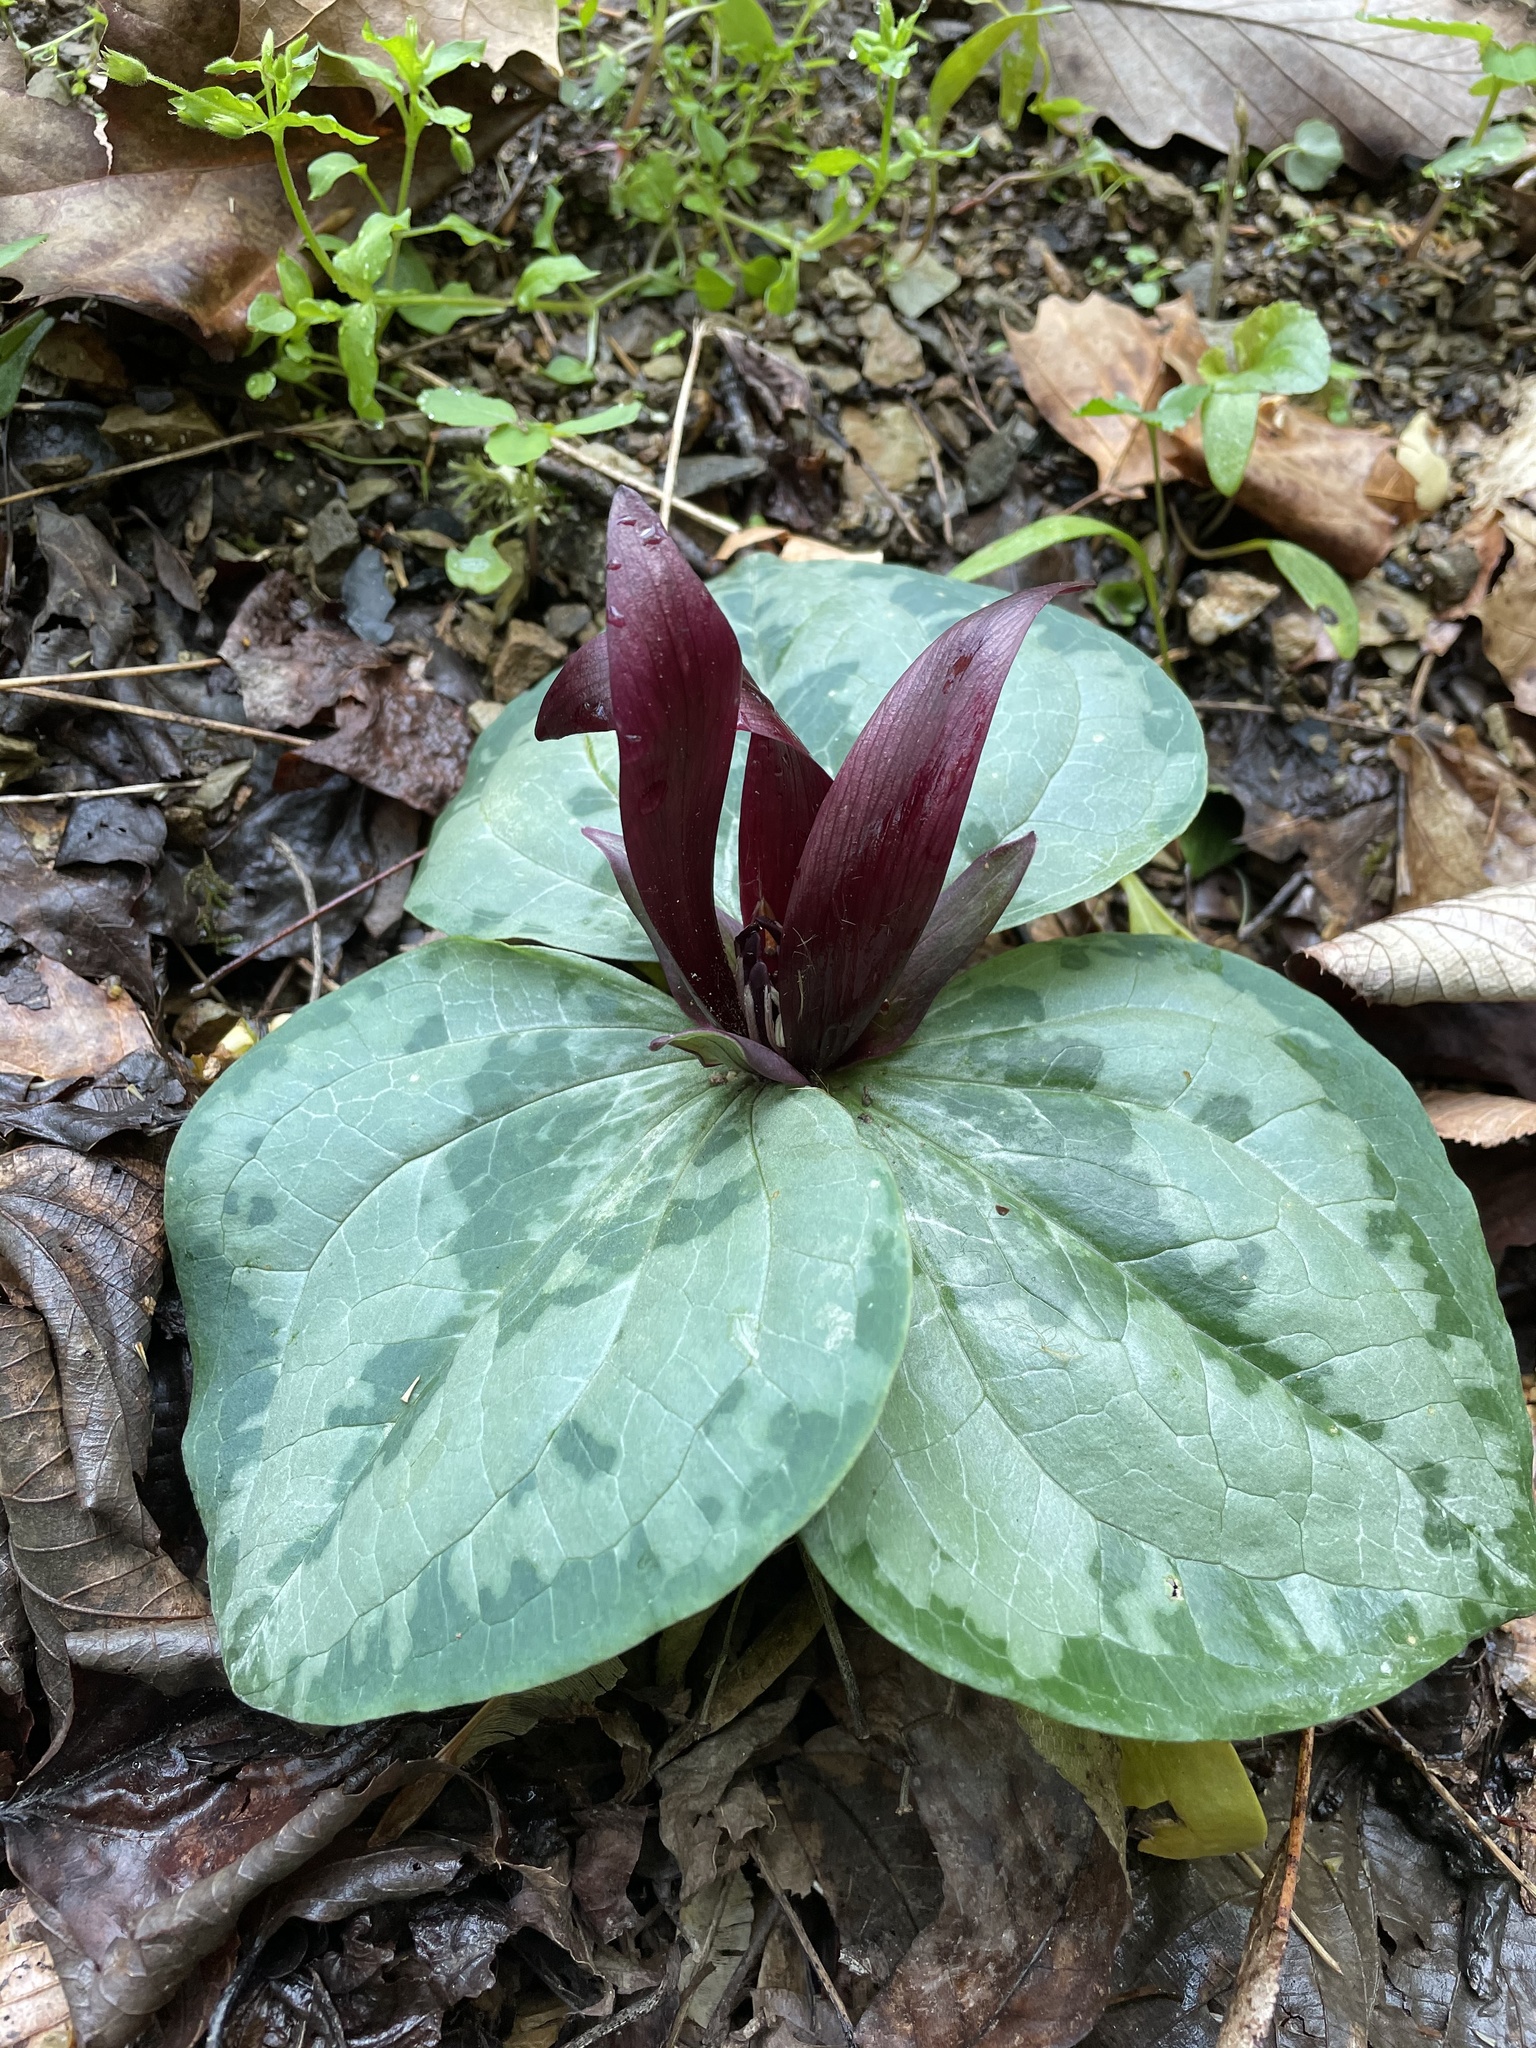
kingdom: Plantae
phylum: Tracheophyta
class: Liliopsida
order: Liliales
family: Melanthiaceae
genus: Trillium
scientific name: Trillium decumbens
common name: Decumbent trillium
